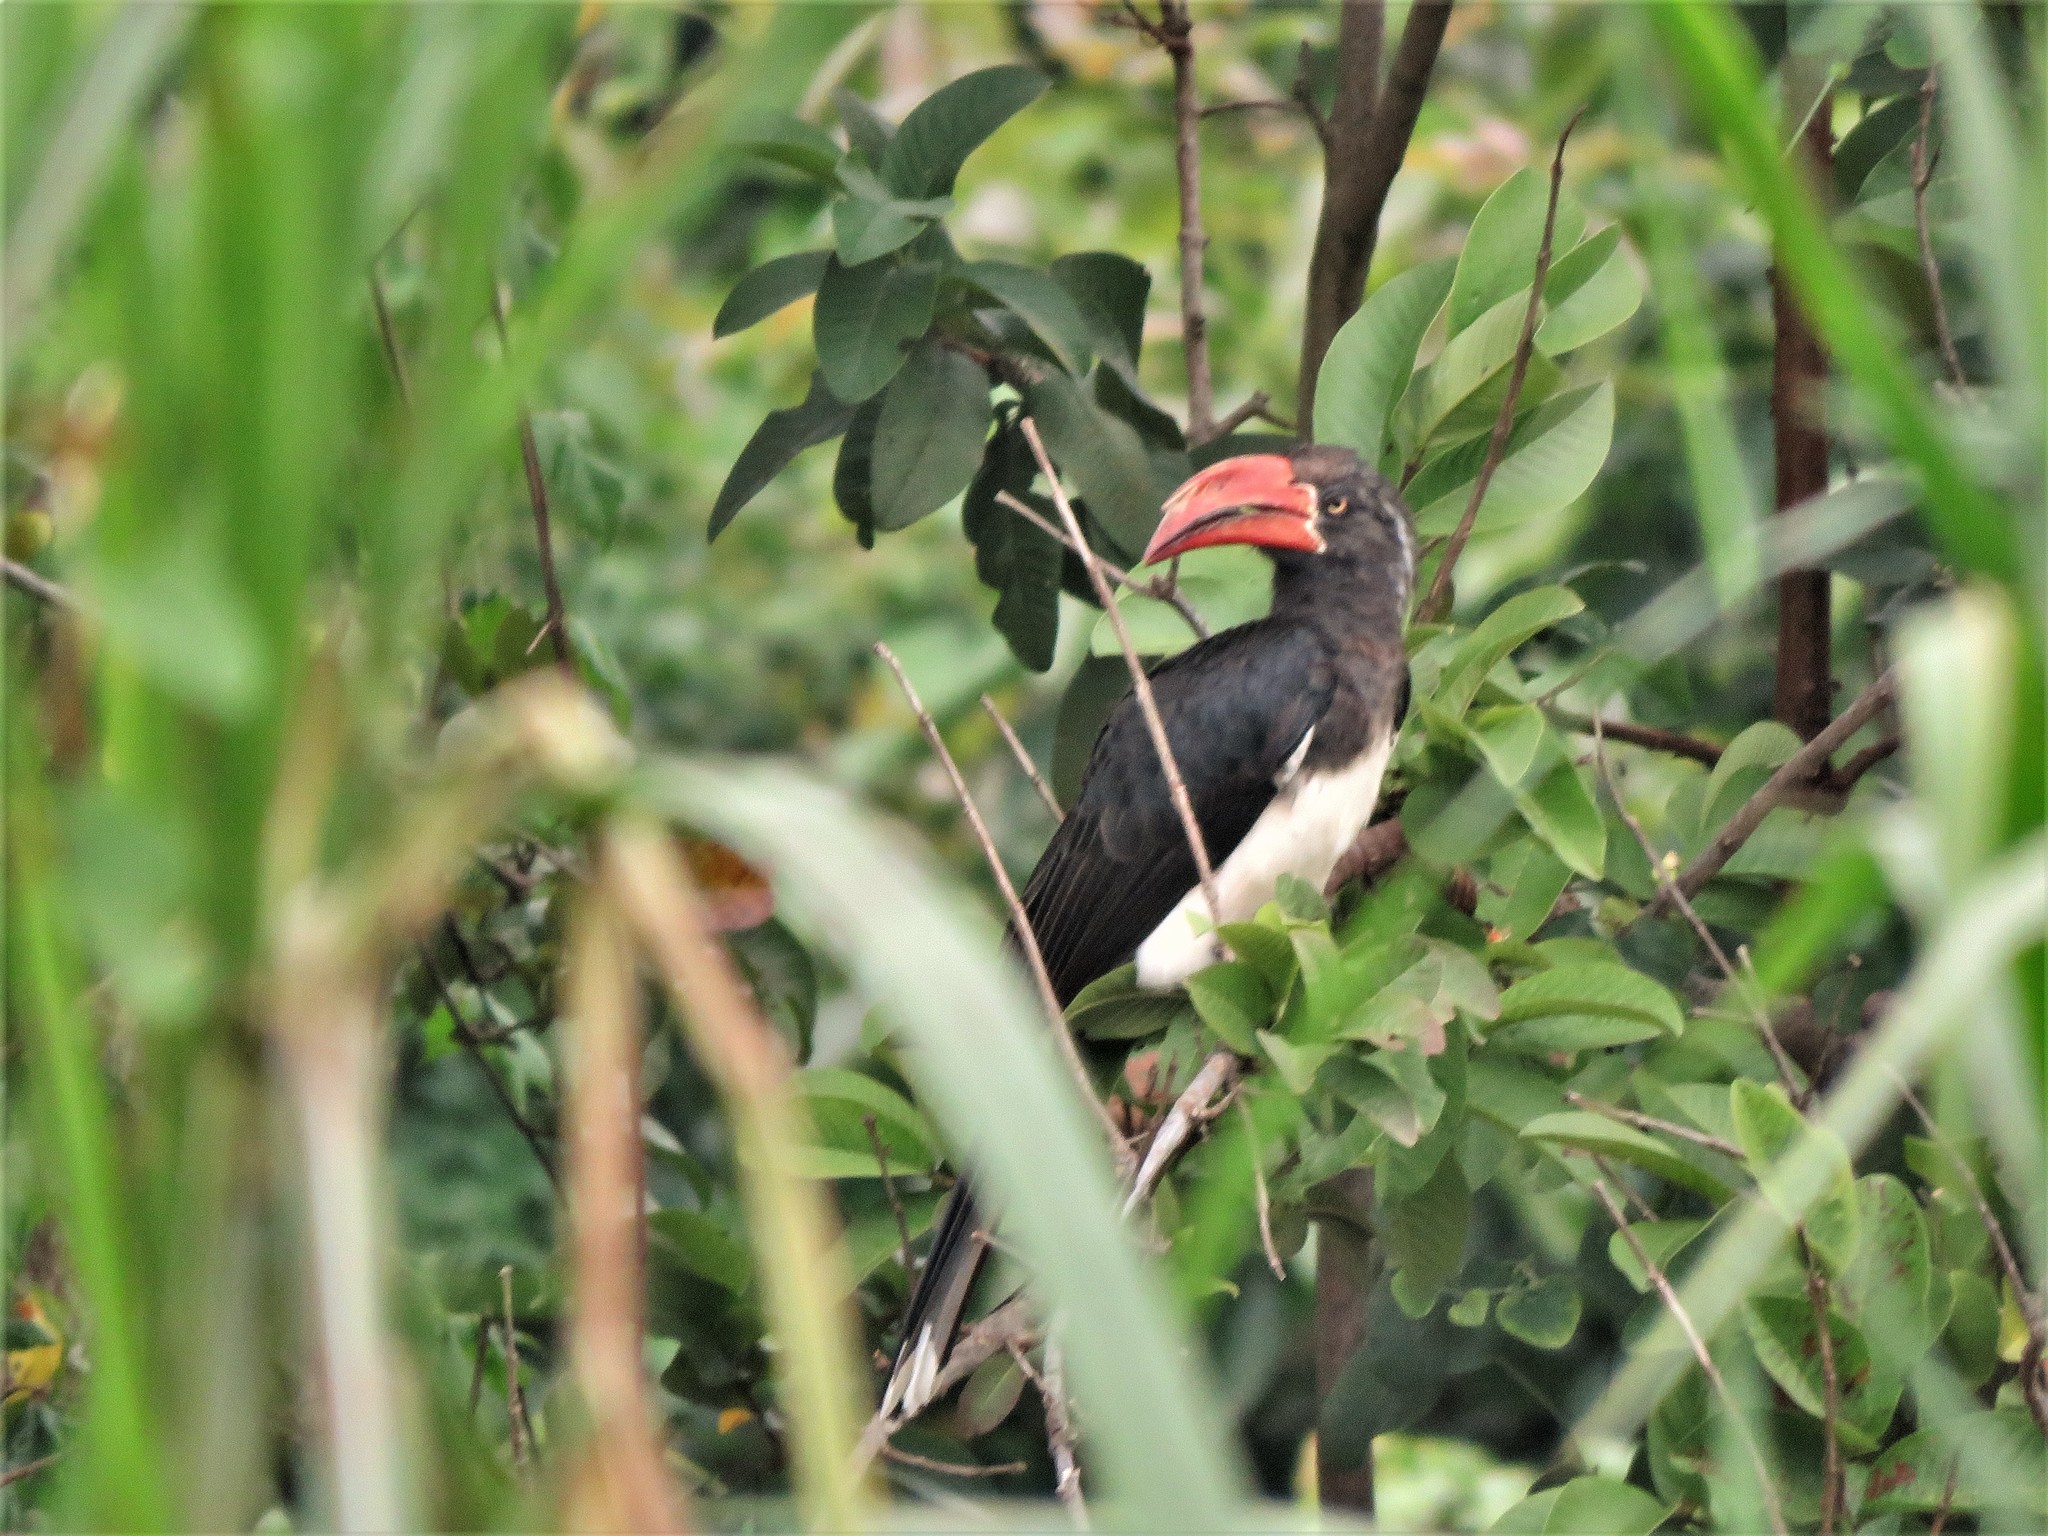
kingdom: Animalia
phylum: Chordata
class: Aves
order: Bucerotiformes
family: Bucerotidae
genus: Lophoceros
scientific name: Lophoceros alboterminatus
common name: Crowned hornbill
